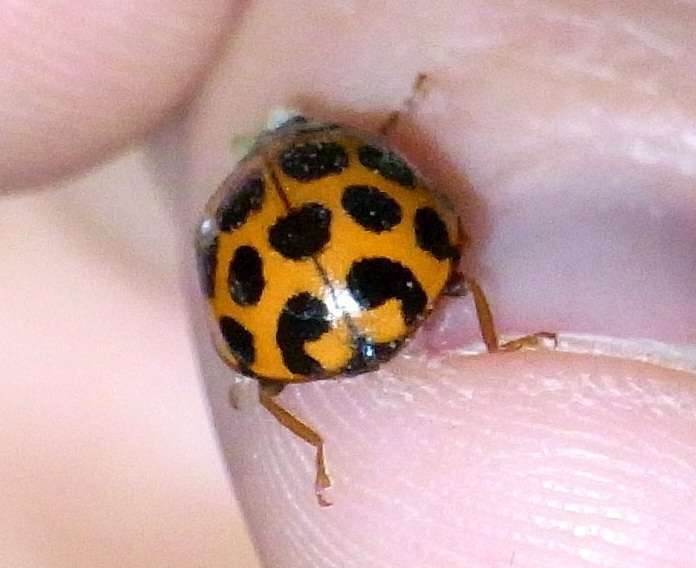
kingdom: Animalia
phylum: Arthropoda
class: Insecta
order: Coleoptera
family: Coccinellidae
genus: Harmonia
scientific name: Harmonia conformis
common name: Common spotted ladybird beetle
